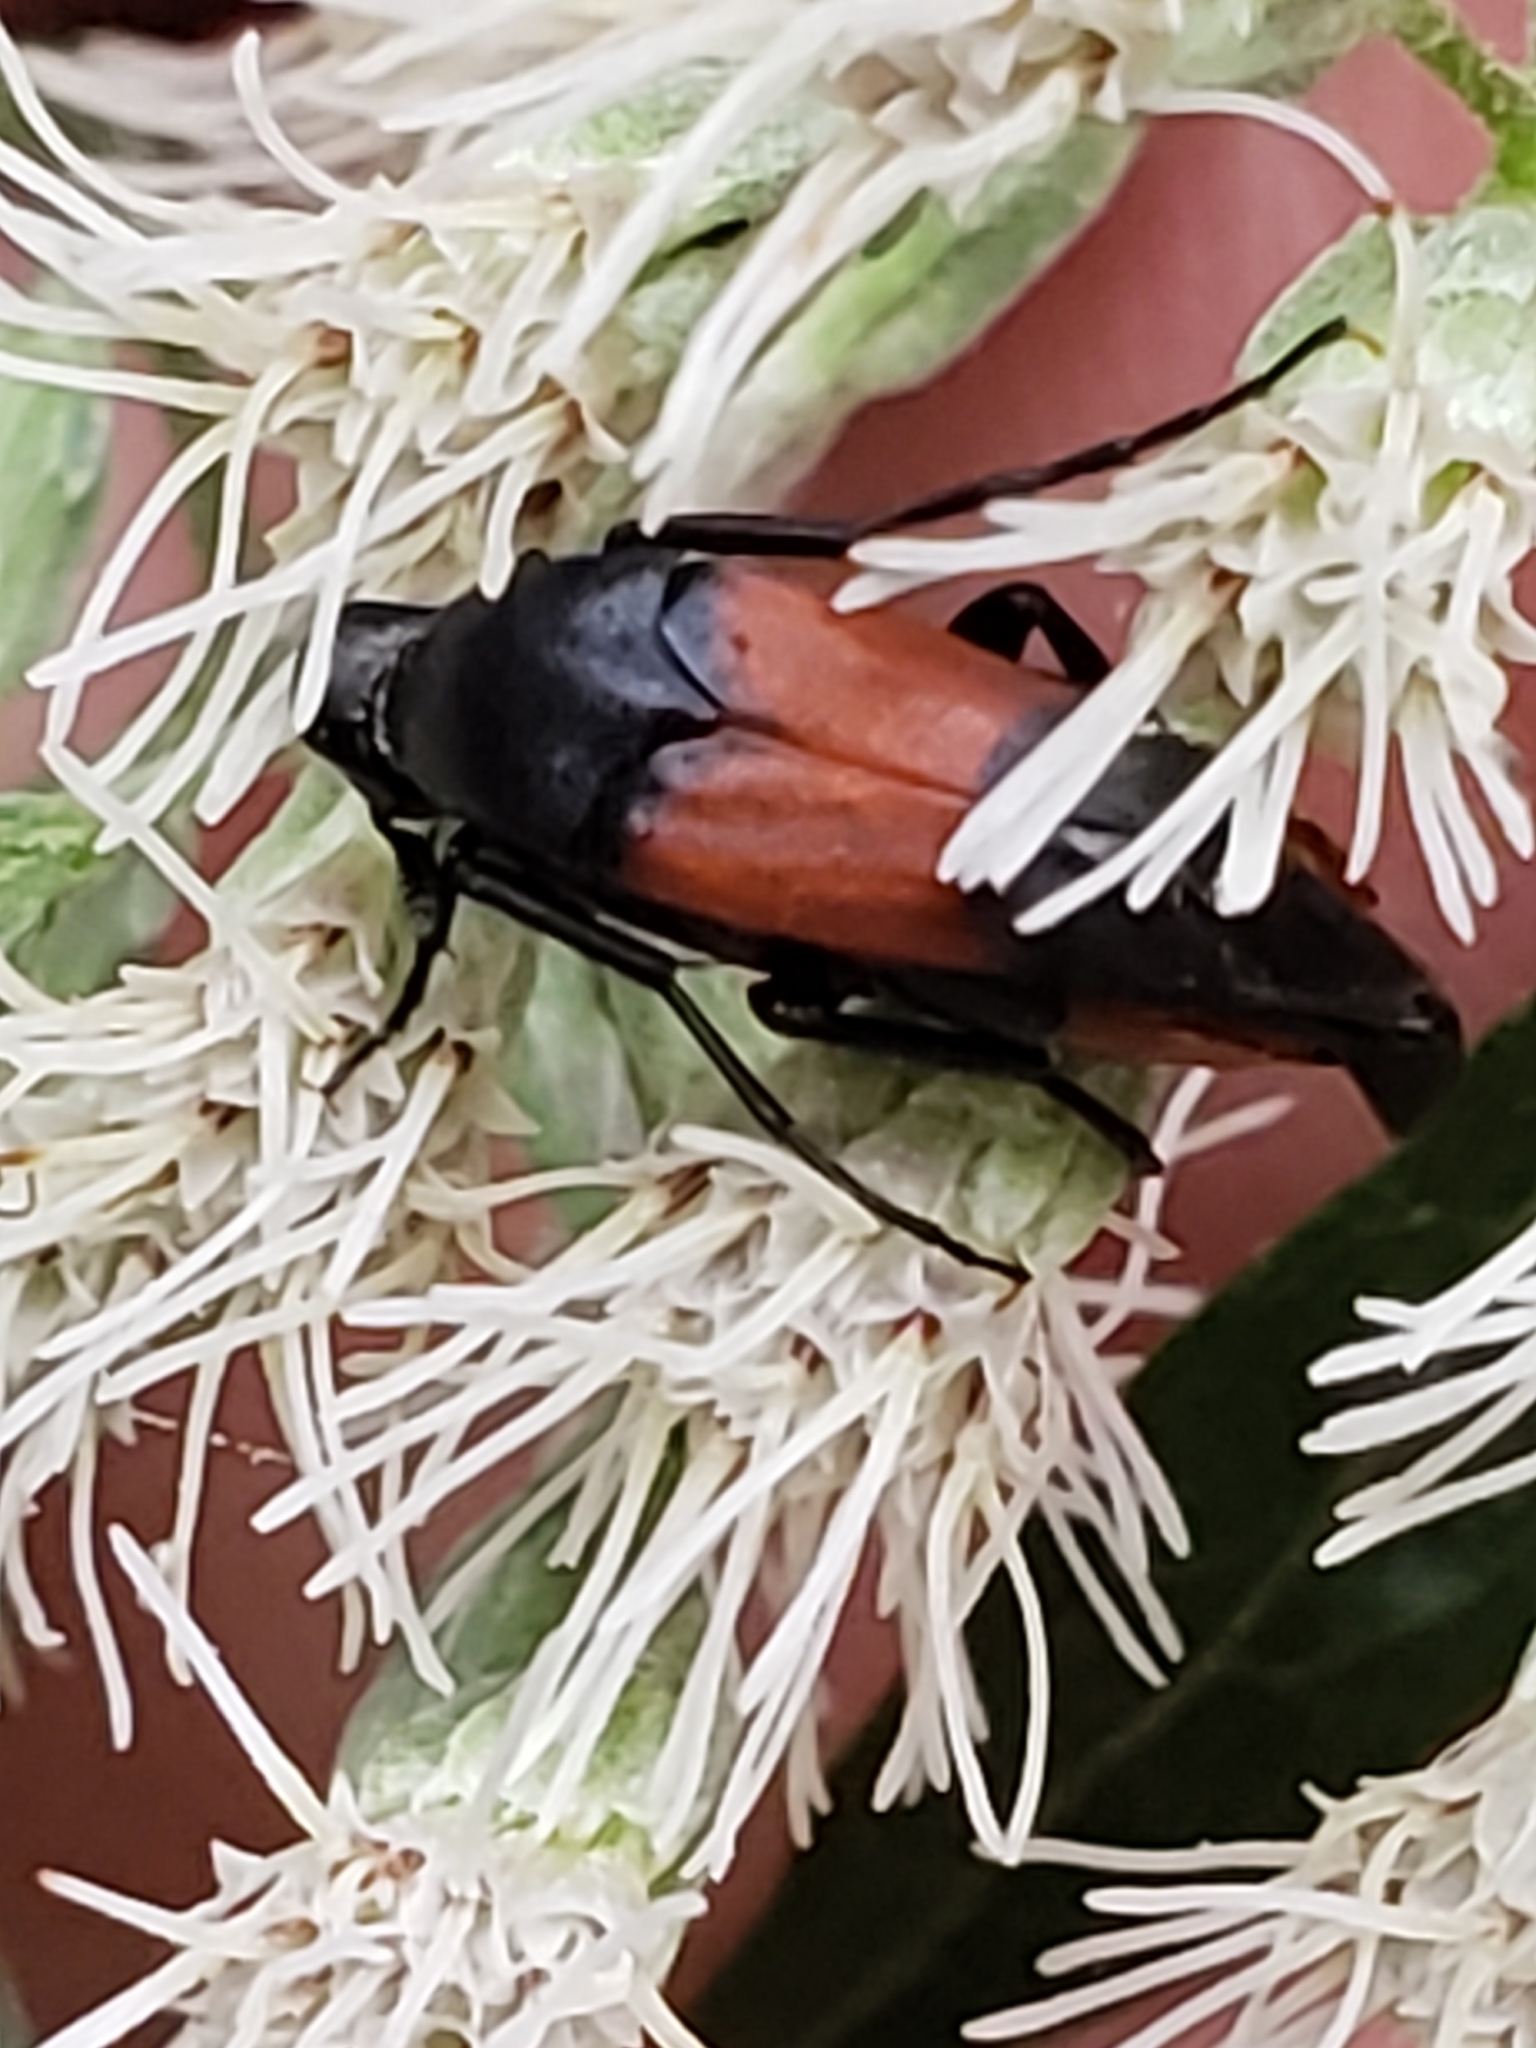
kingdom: Animalia
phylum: Arthropoda
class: Insecta
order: Coleoptera
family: Ripiphoridae
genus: Macrosiagon
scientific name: Macrosiagon cruentum
